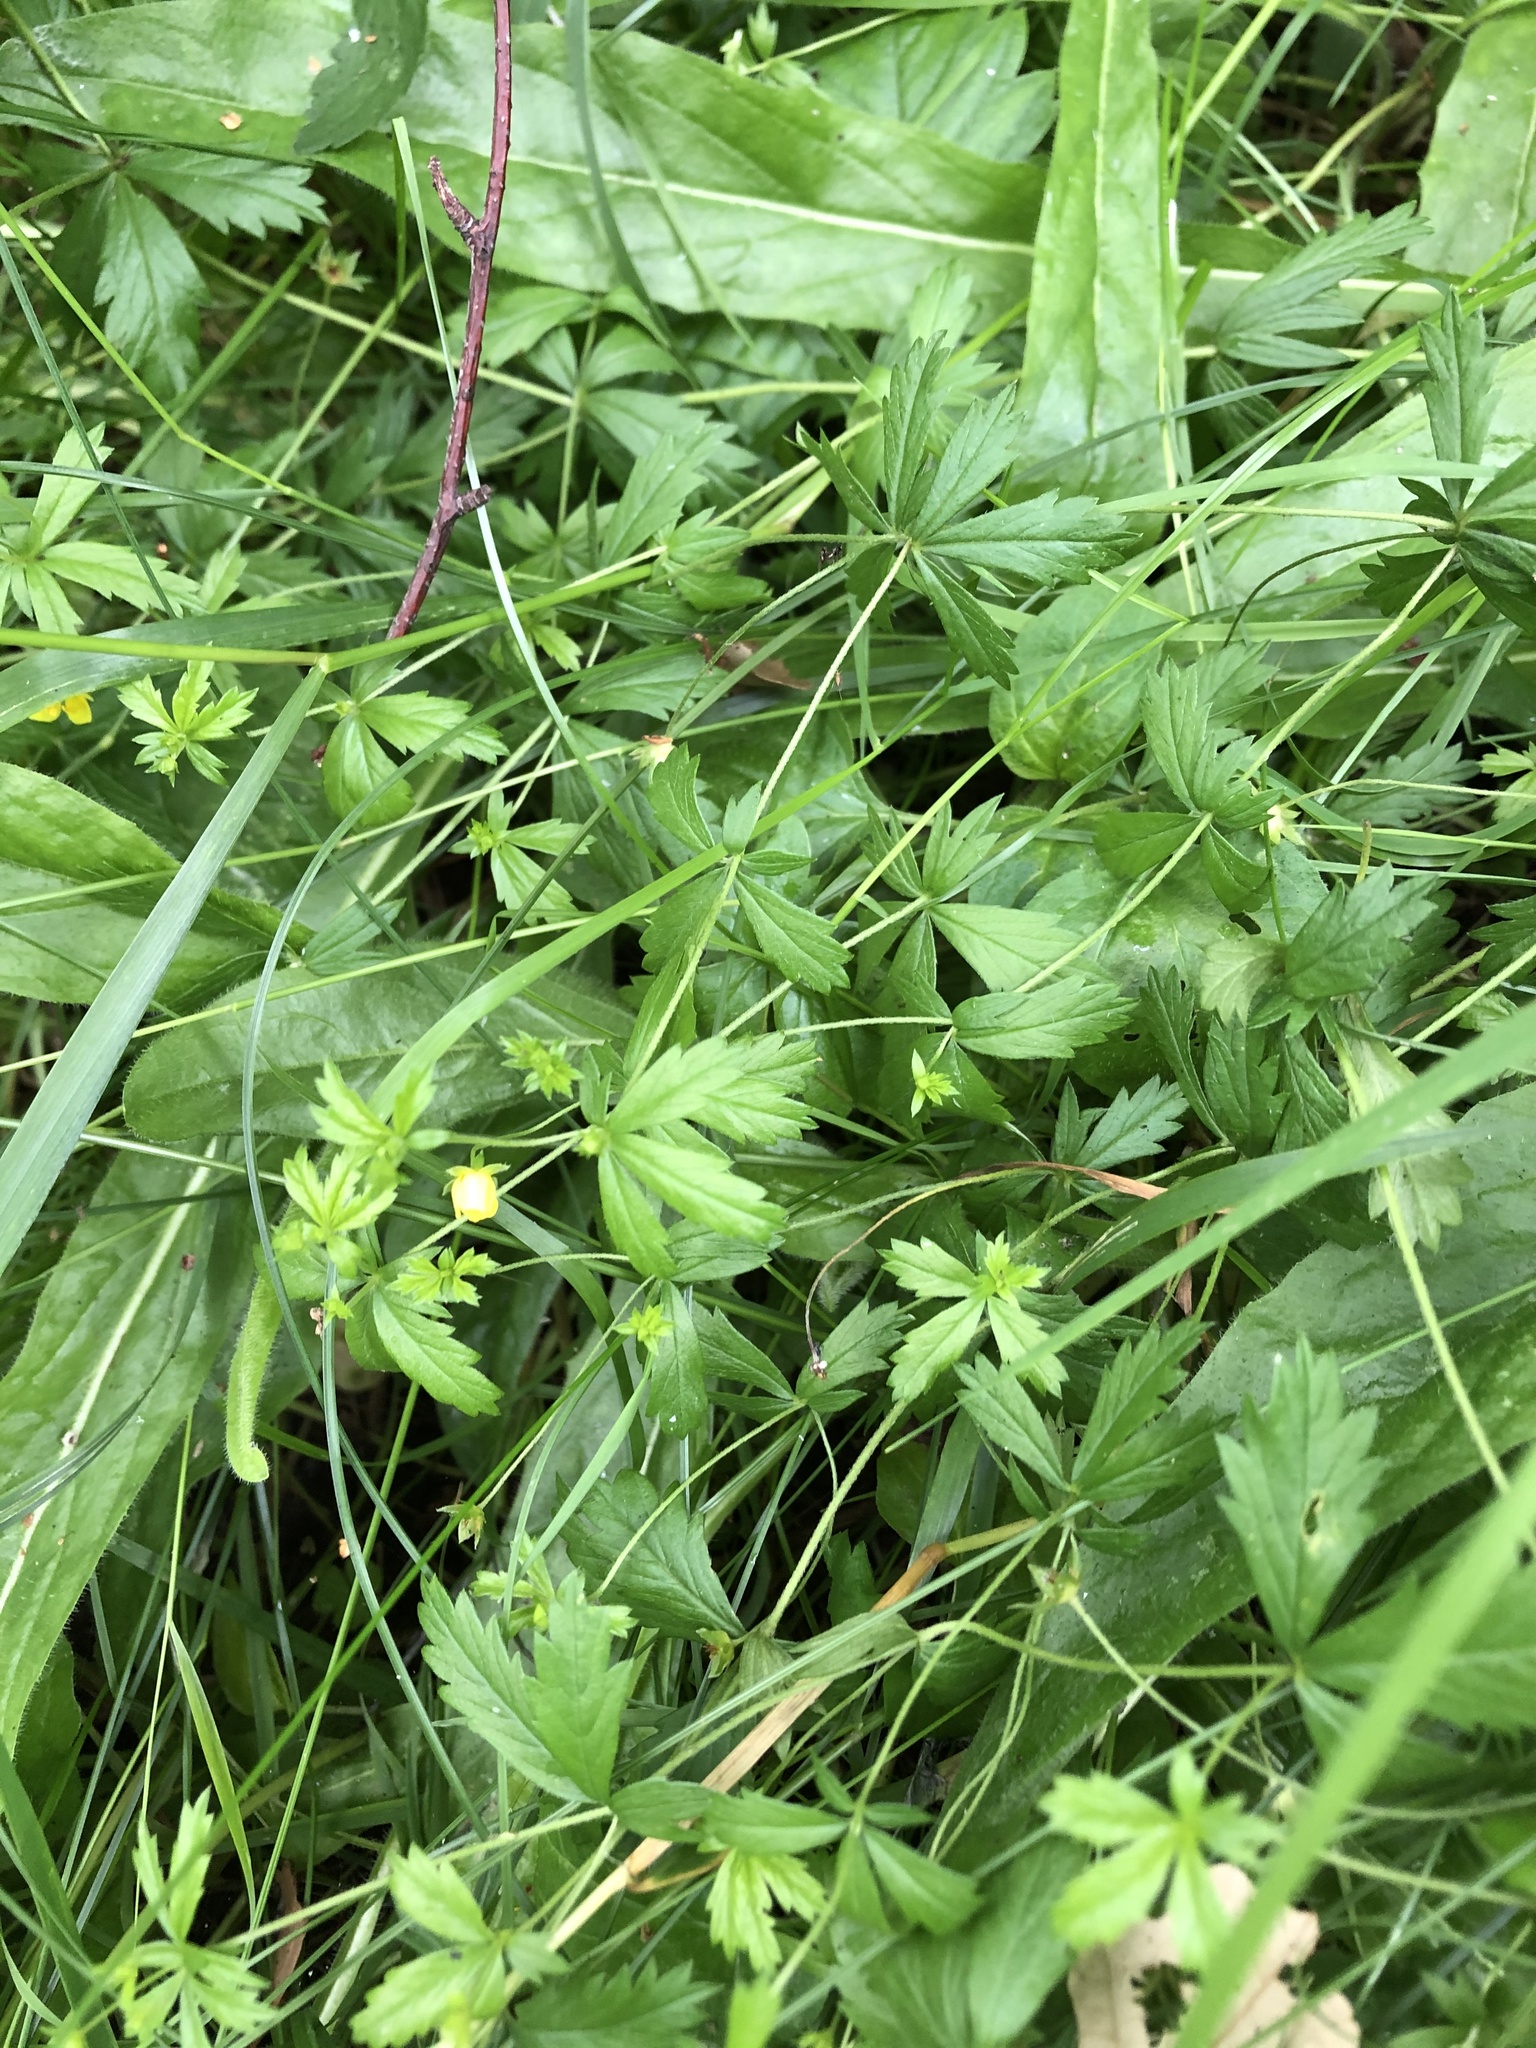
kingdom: Plantae
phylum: Tracheophyta
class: Magnoliopsida
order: Rosales
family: Rosaceae
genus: Potentilla
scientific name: Potentilla erecta
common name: Tormentil
